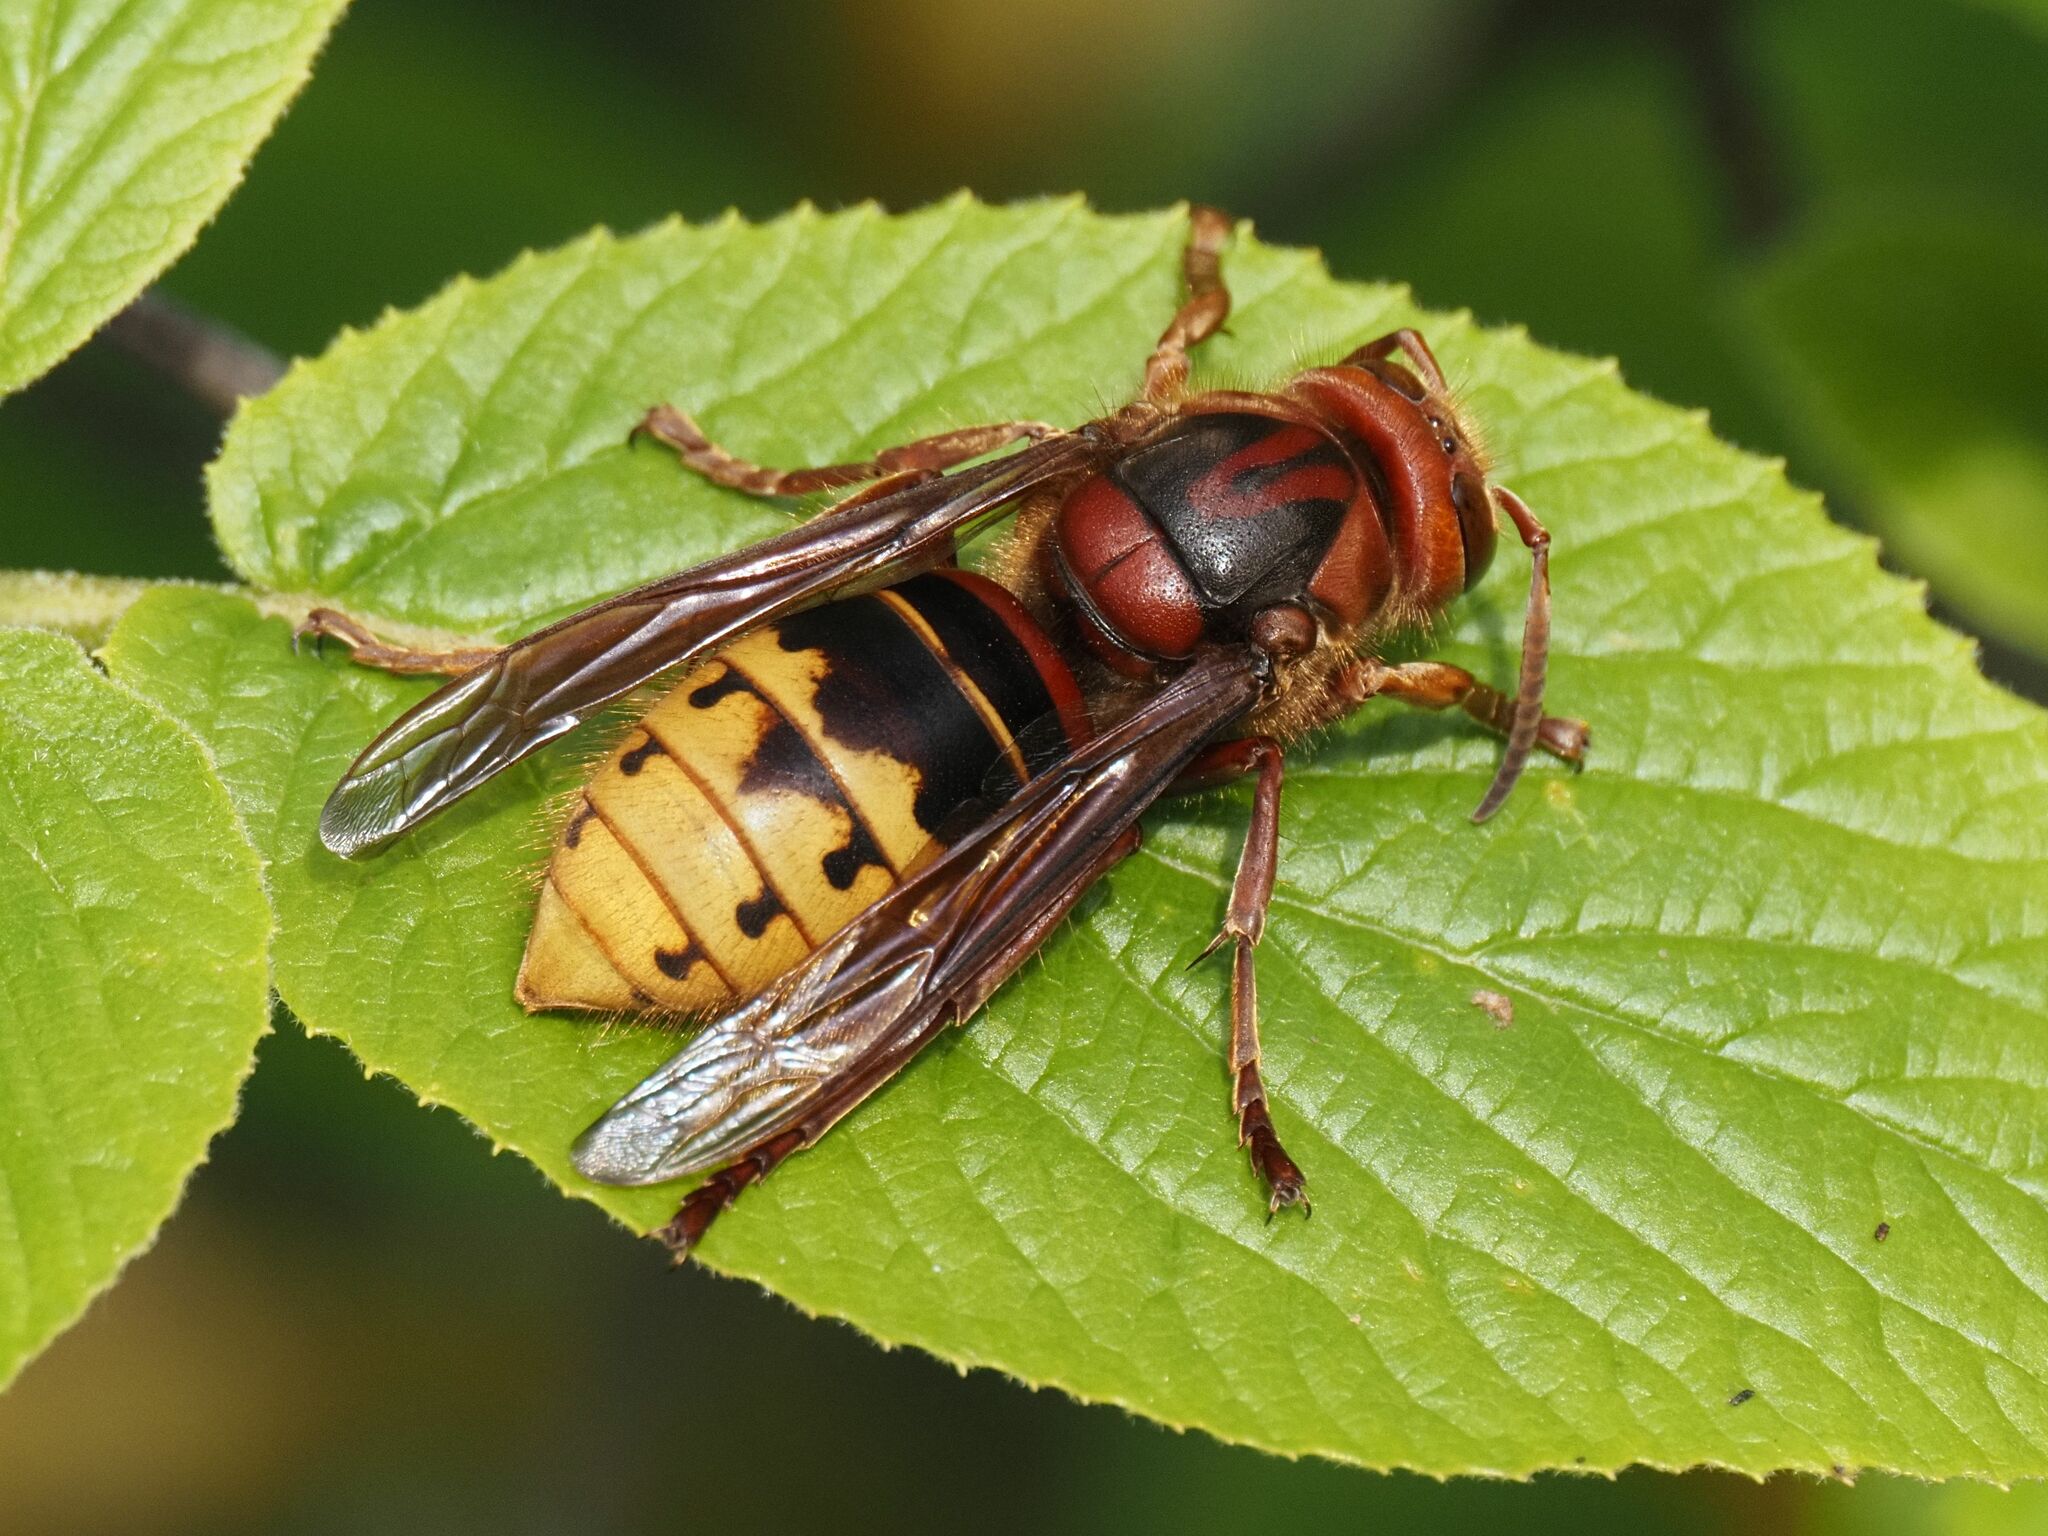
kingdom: Animalia
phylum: Arthropoda
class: Insecta
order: Hymenoptera
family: Vespidae
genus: Vespa
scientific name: Vespa crabro
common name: Hornet
